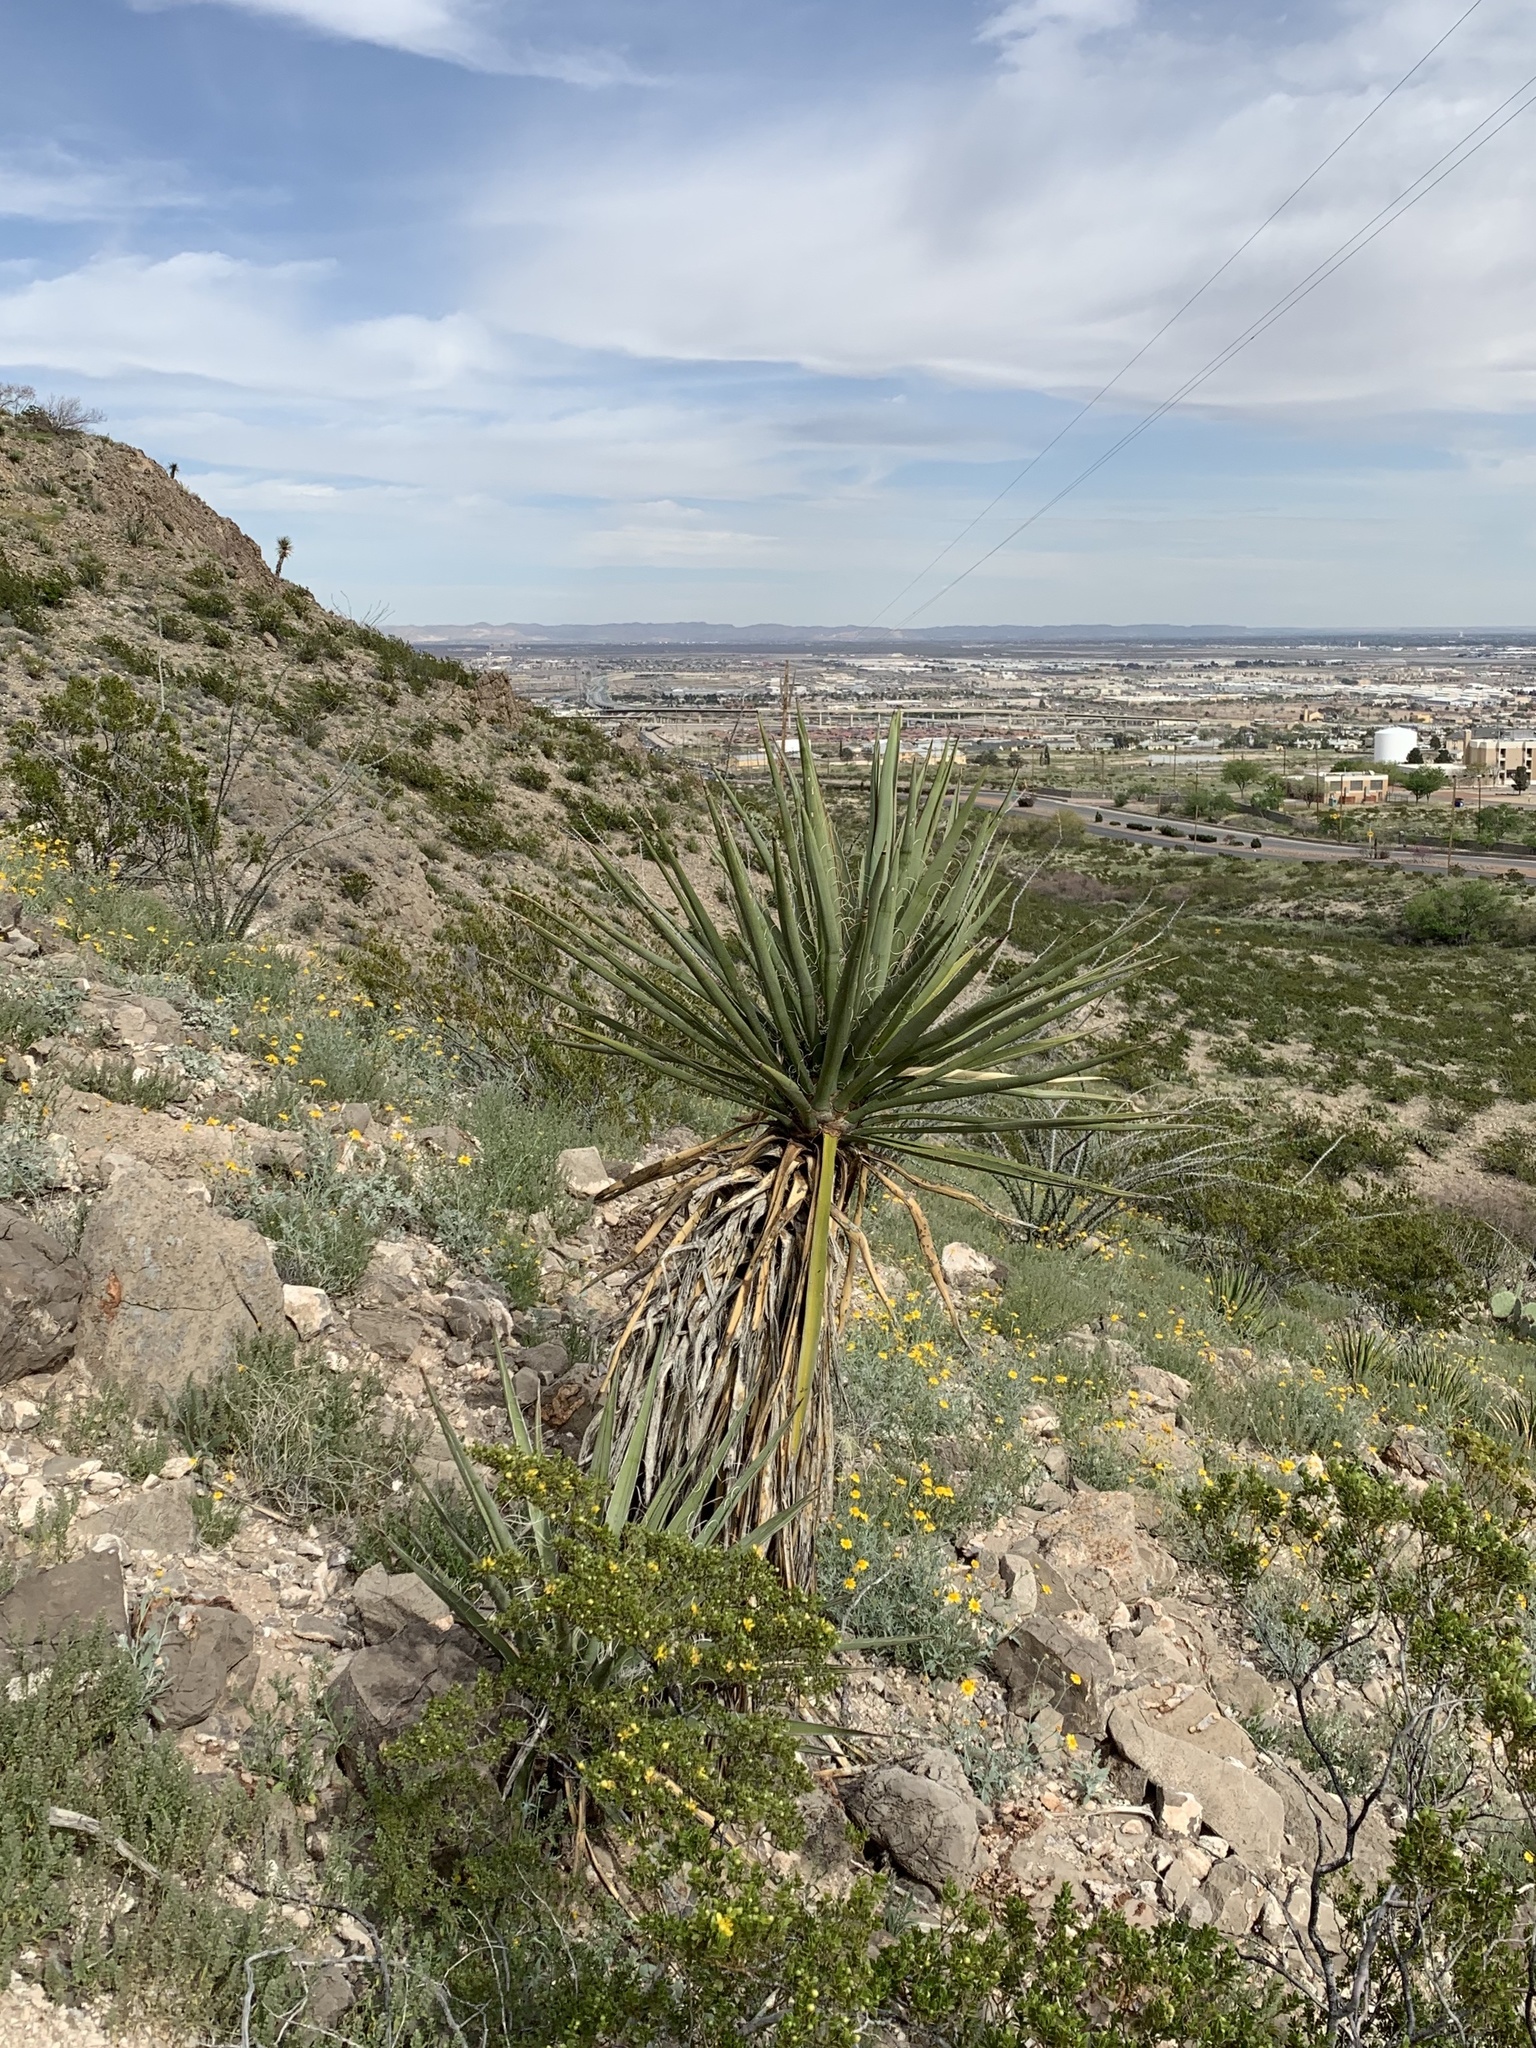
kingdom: Plantae
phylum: Tracheophyta
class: Liliopsida
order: Asparagales
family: Asparagaceae
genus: Yucca
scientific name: Yucca treculiana
